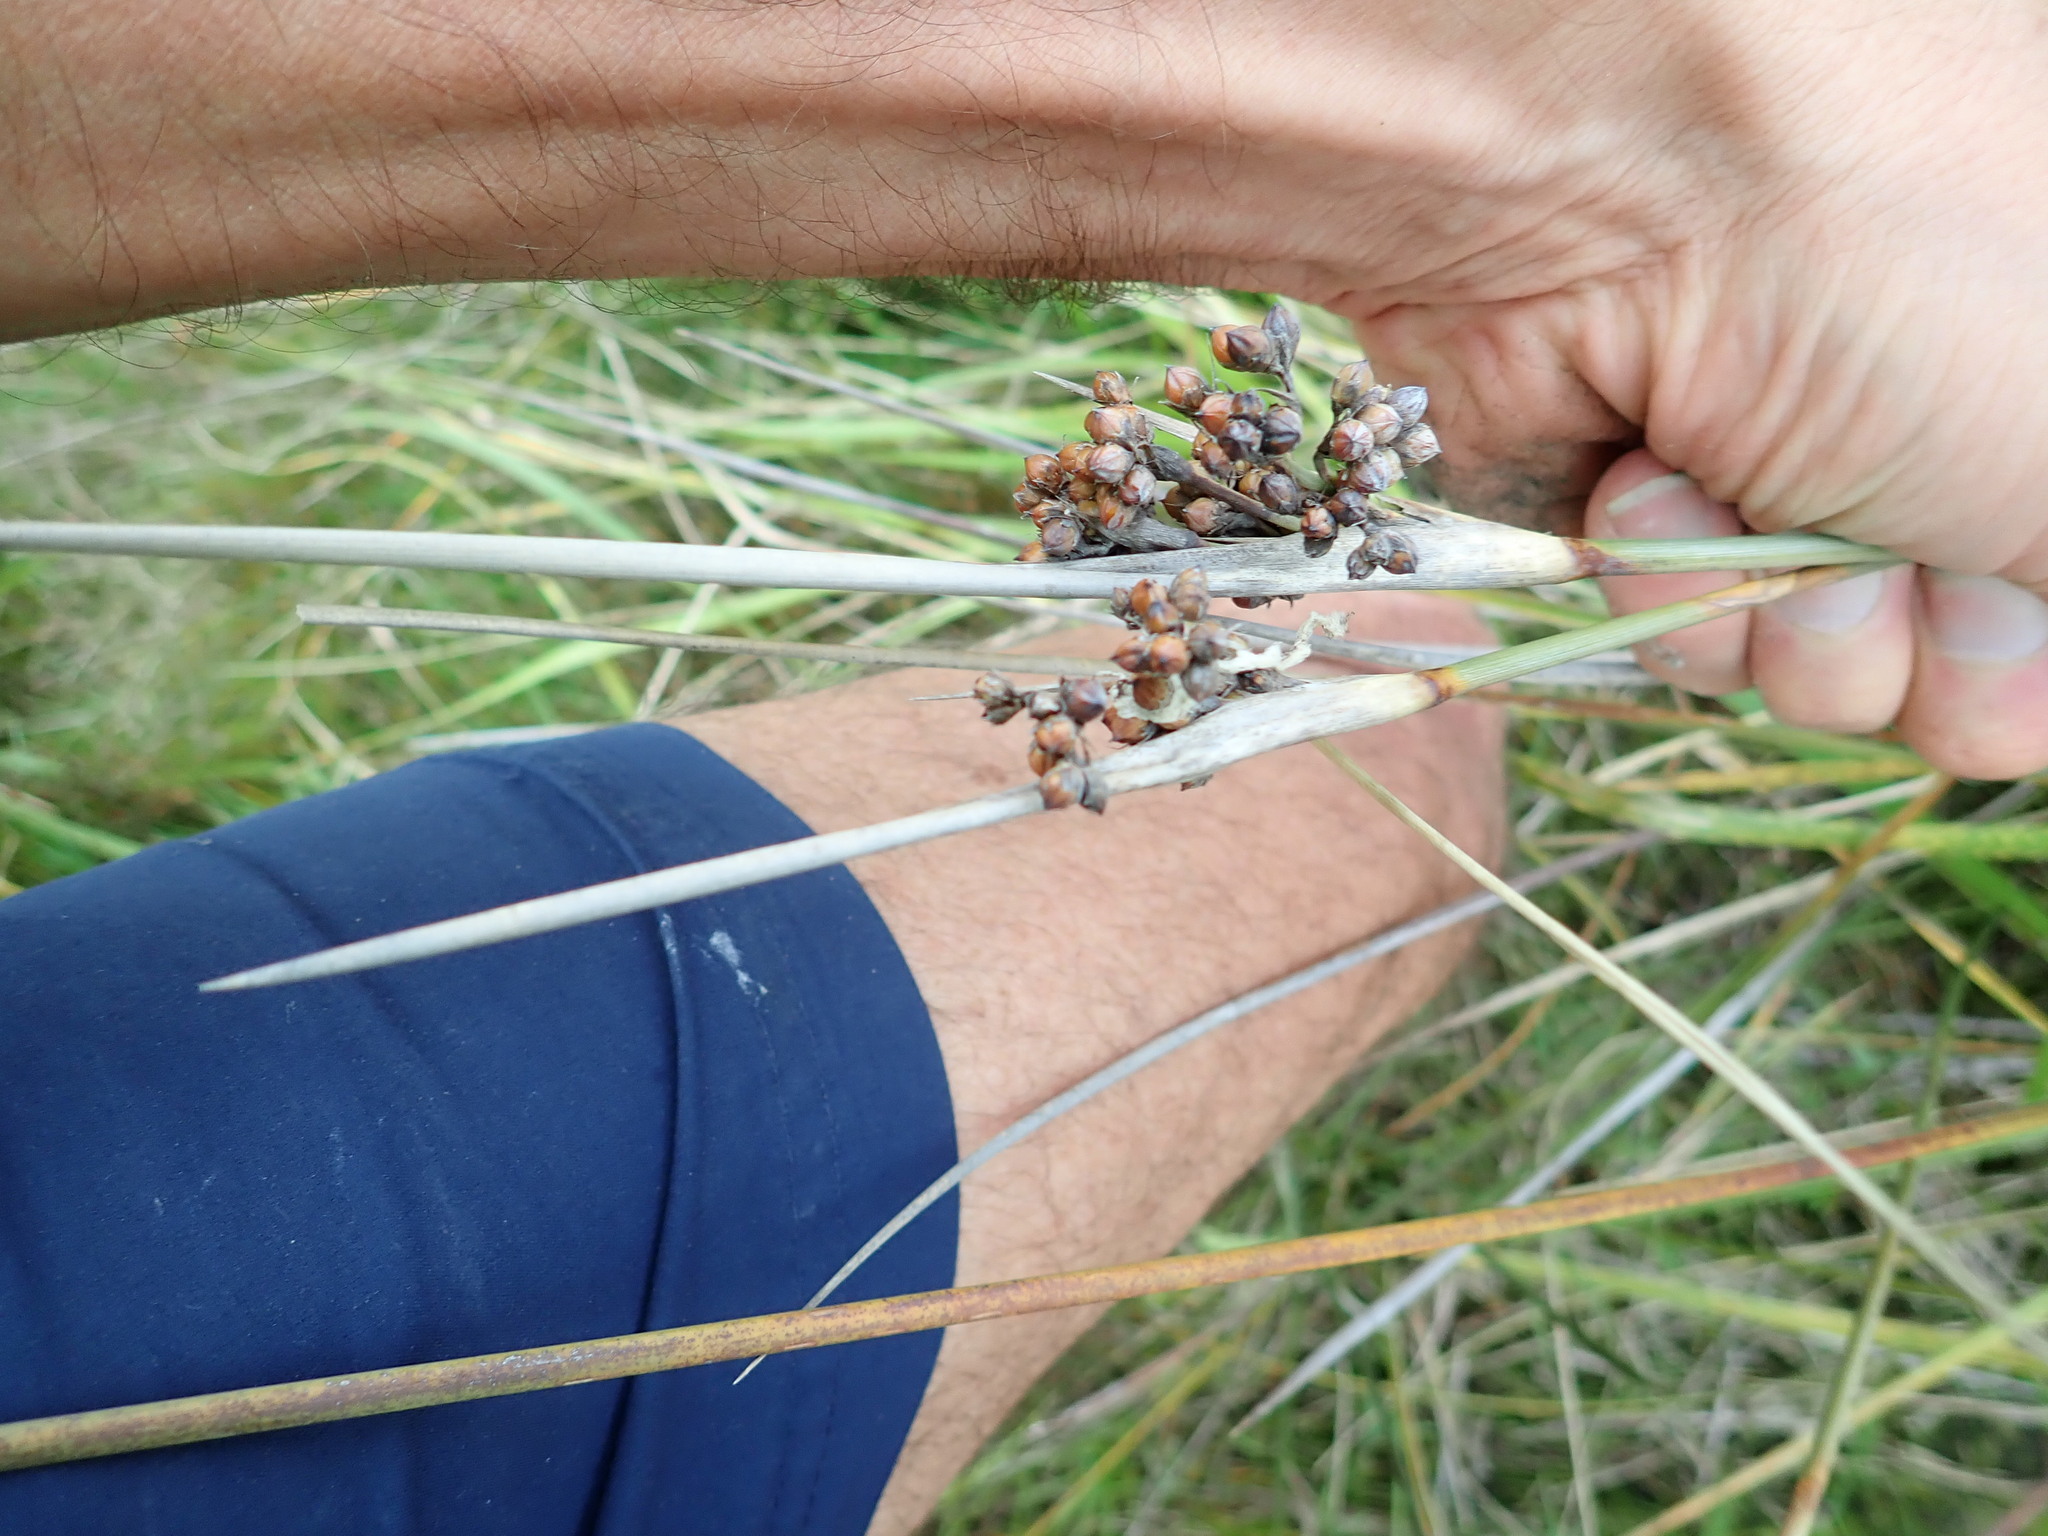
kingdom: Plantae
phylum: Tracheophyta
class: Liliopsida
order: Poales
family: Juncaceae
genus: Juncus
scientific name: Juncus acutus
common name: Sharp rush
